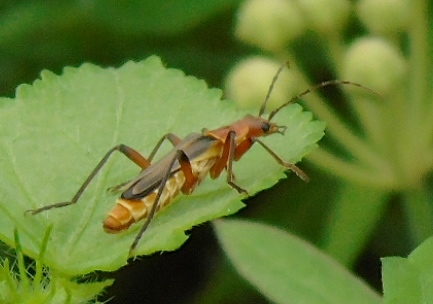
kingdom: Animalia
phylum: Arthropoda
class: Insecta
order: Coleoptera
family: Cantharidae
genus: Chauliognathus
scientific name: Chauliognathus
